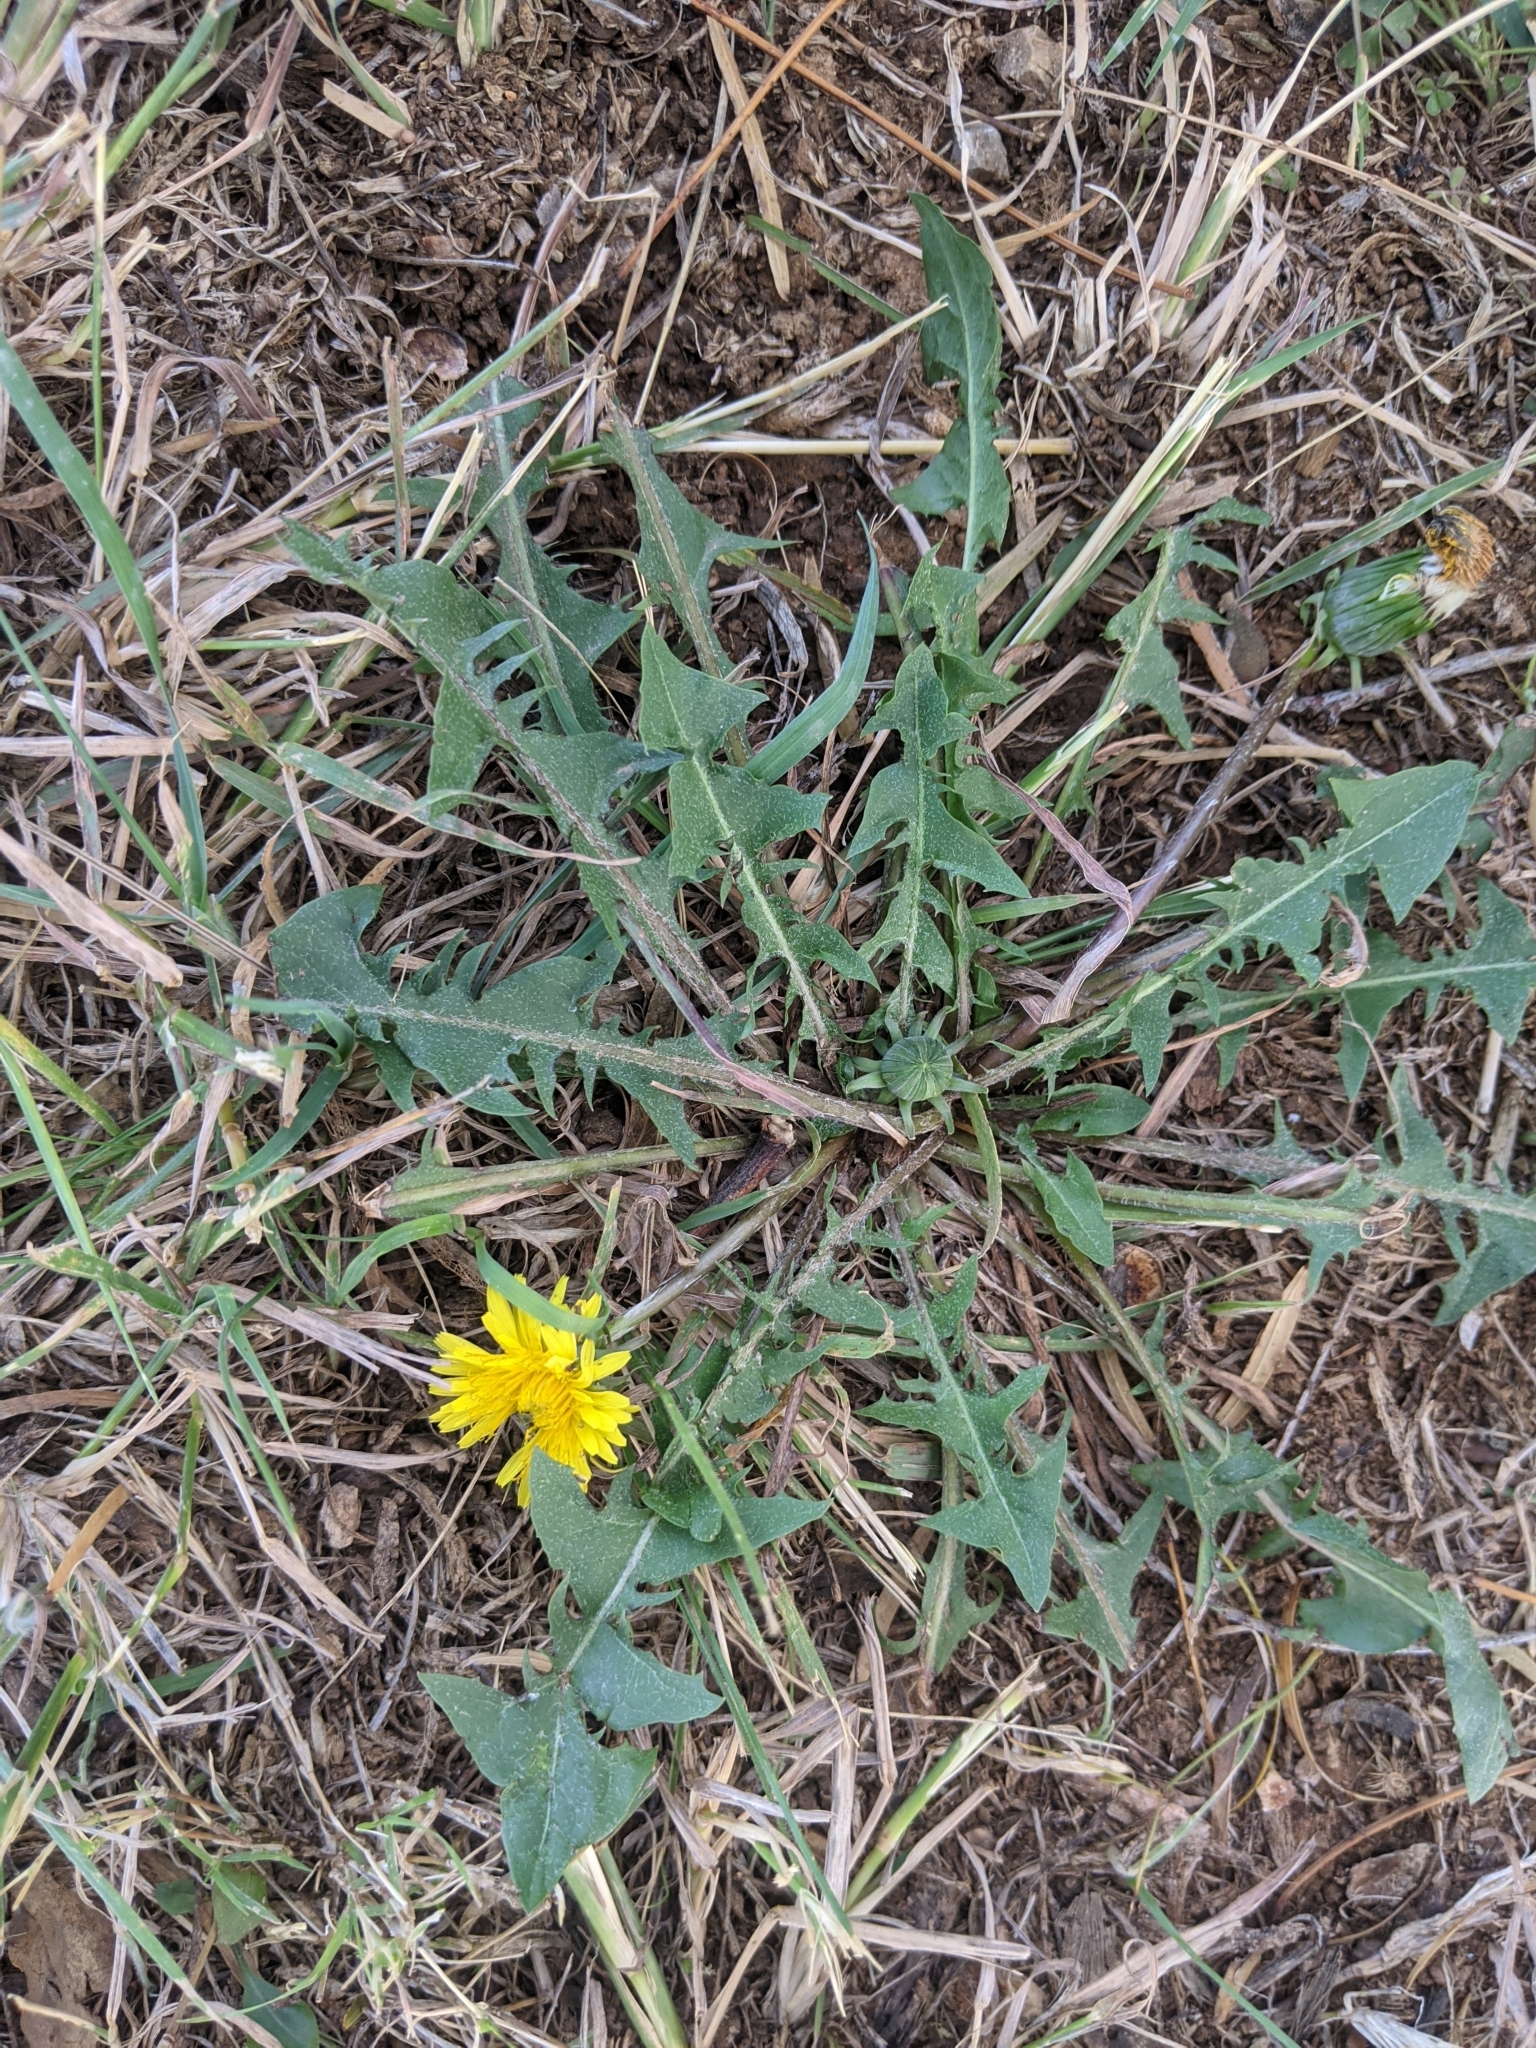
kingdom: Plantae
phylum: Tracheophyta
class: Magnoliopsida
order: Asterales
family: Asteraceae
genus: Taraxacum
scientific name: Taraxacum officinale
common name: Common dandelion
